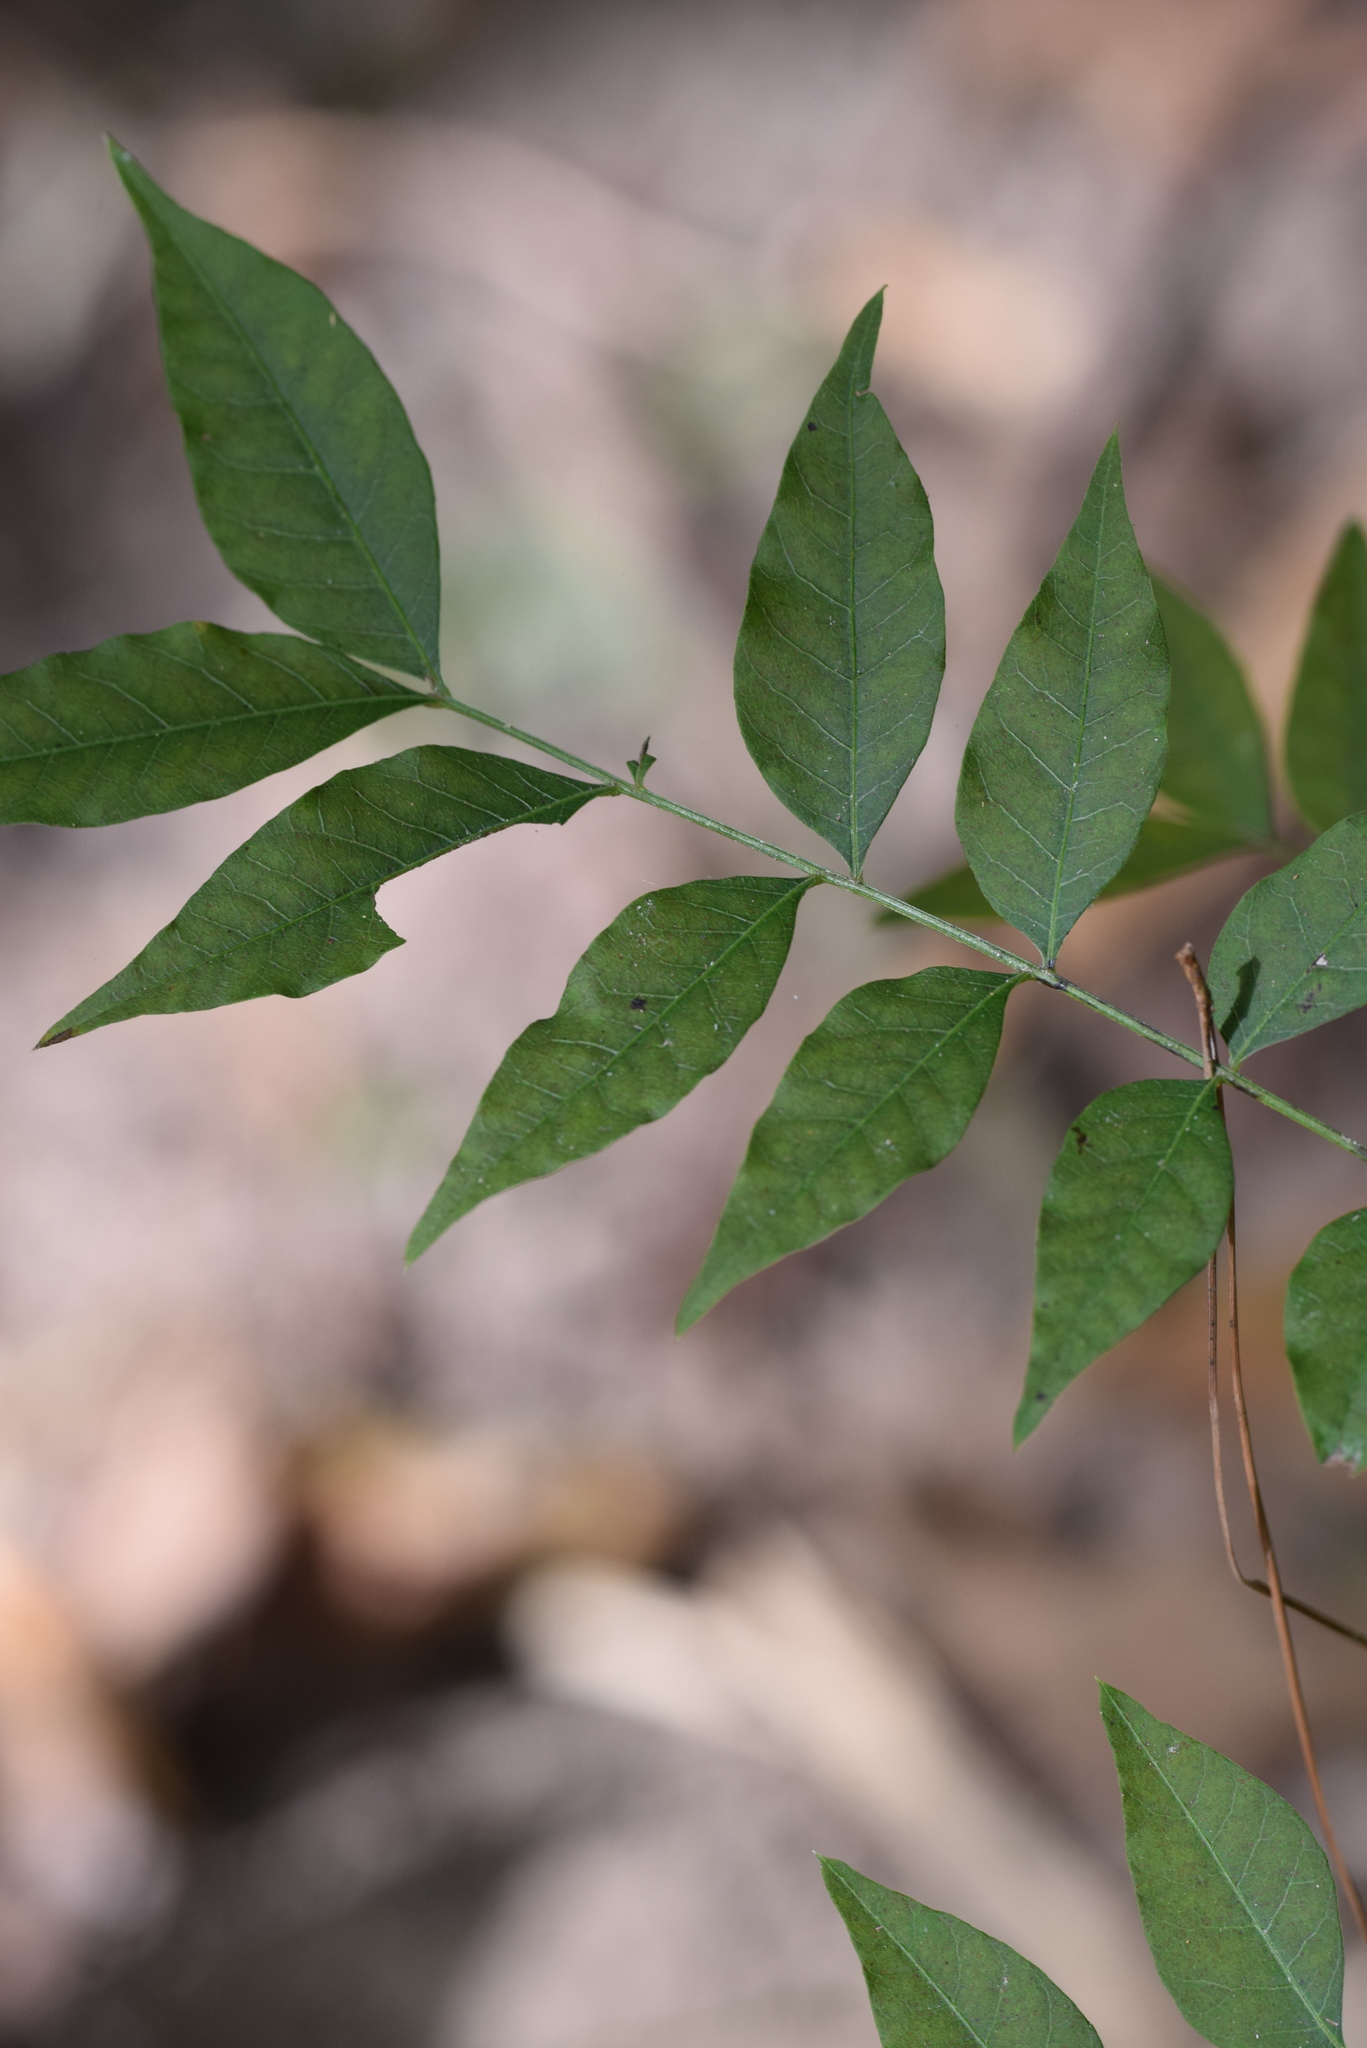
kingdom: Plantae
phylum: Tracheophyta
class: Magnoliopsida
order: Sapindales
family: Anacardiaceae
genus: Pistacia
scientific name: Pistacia chinensis
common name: Chinese pistache
